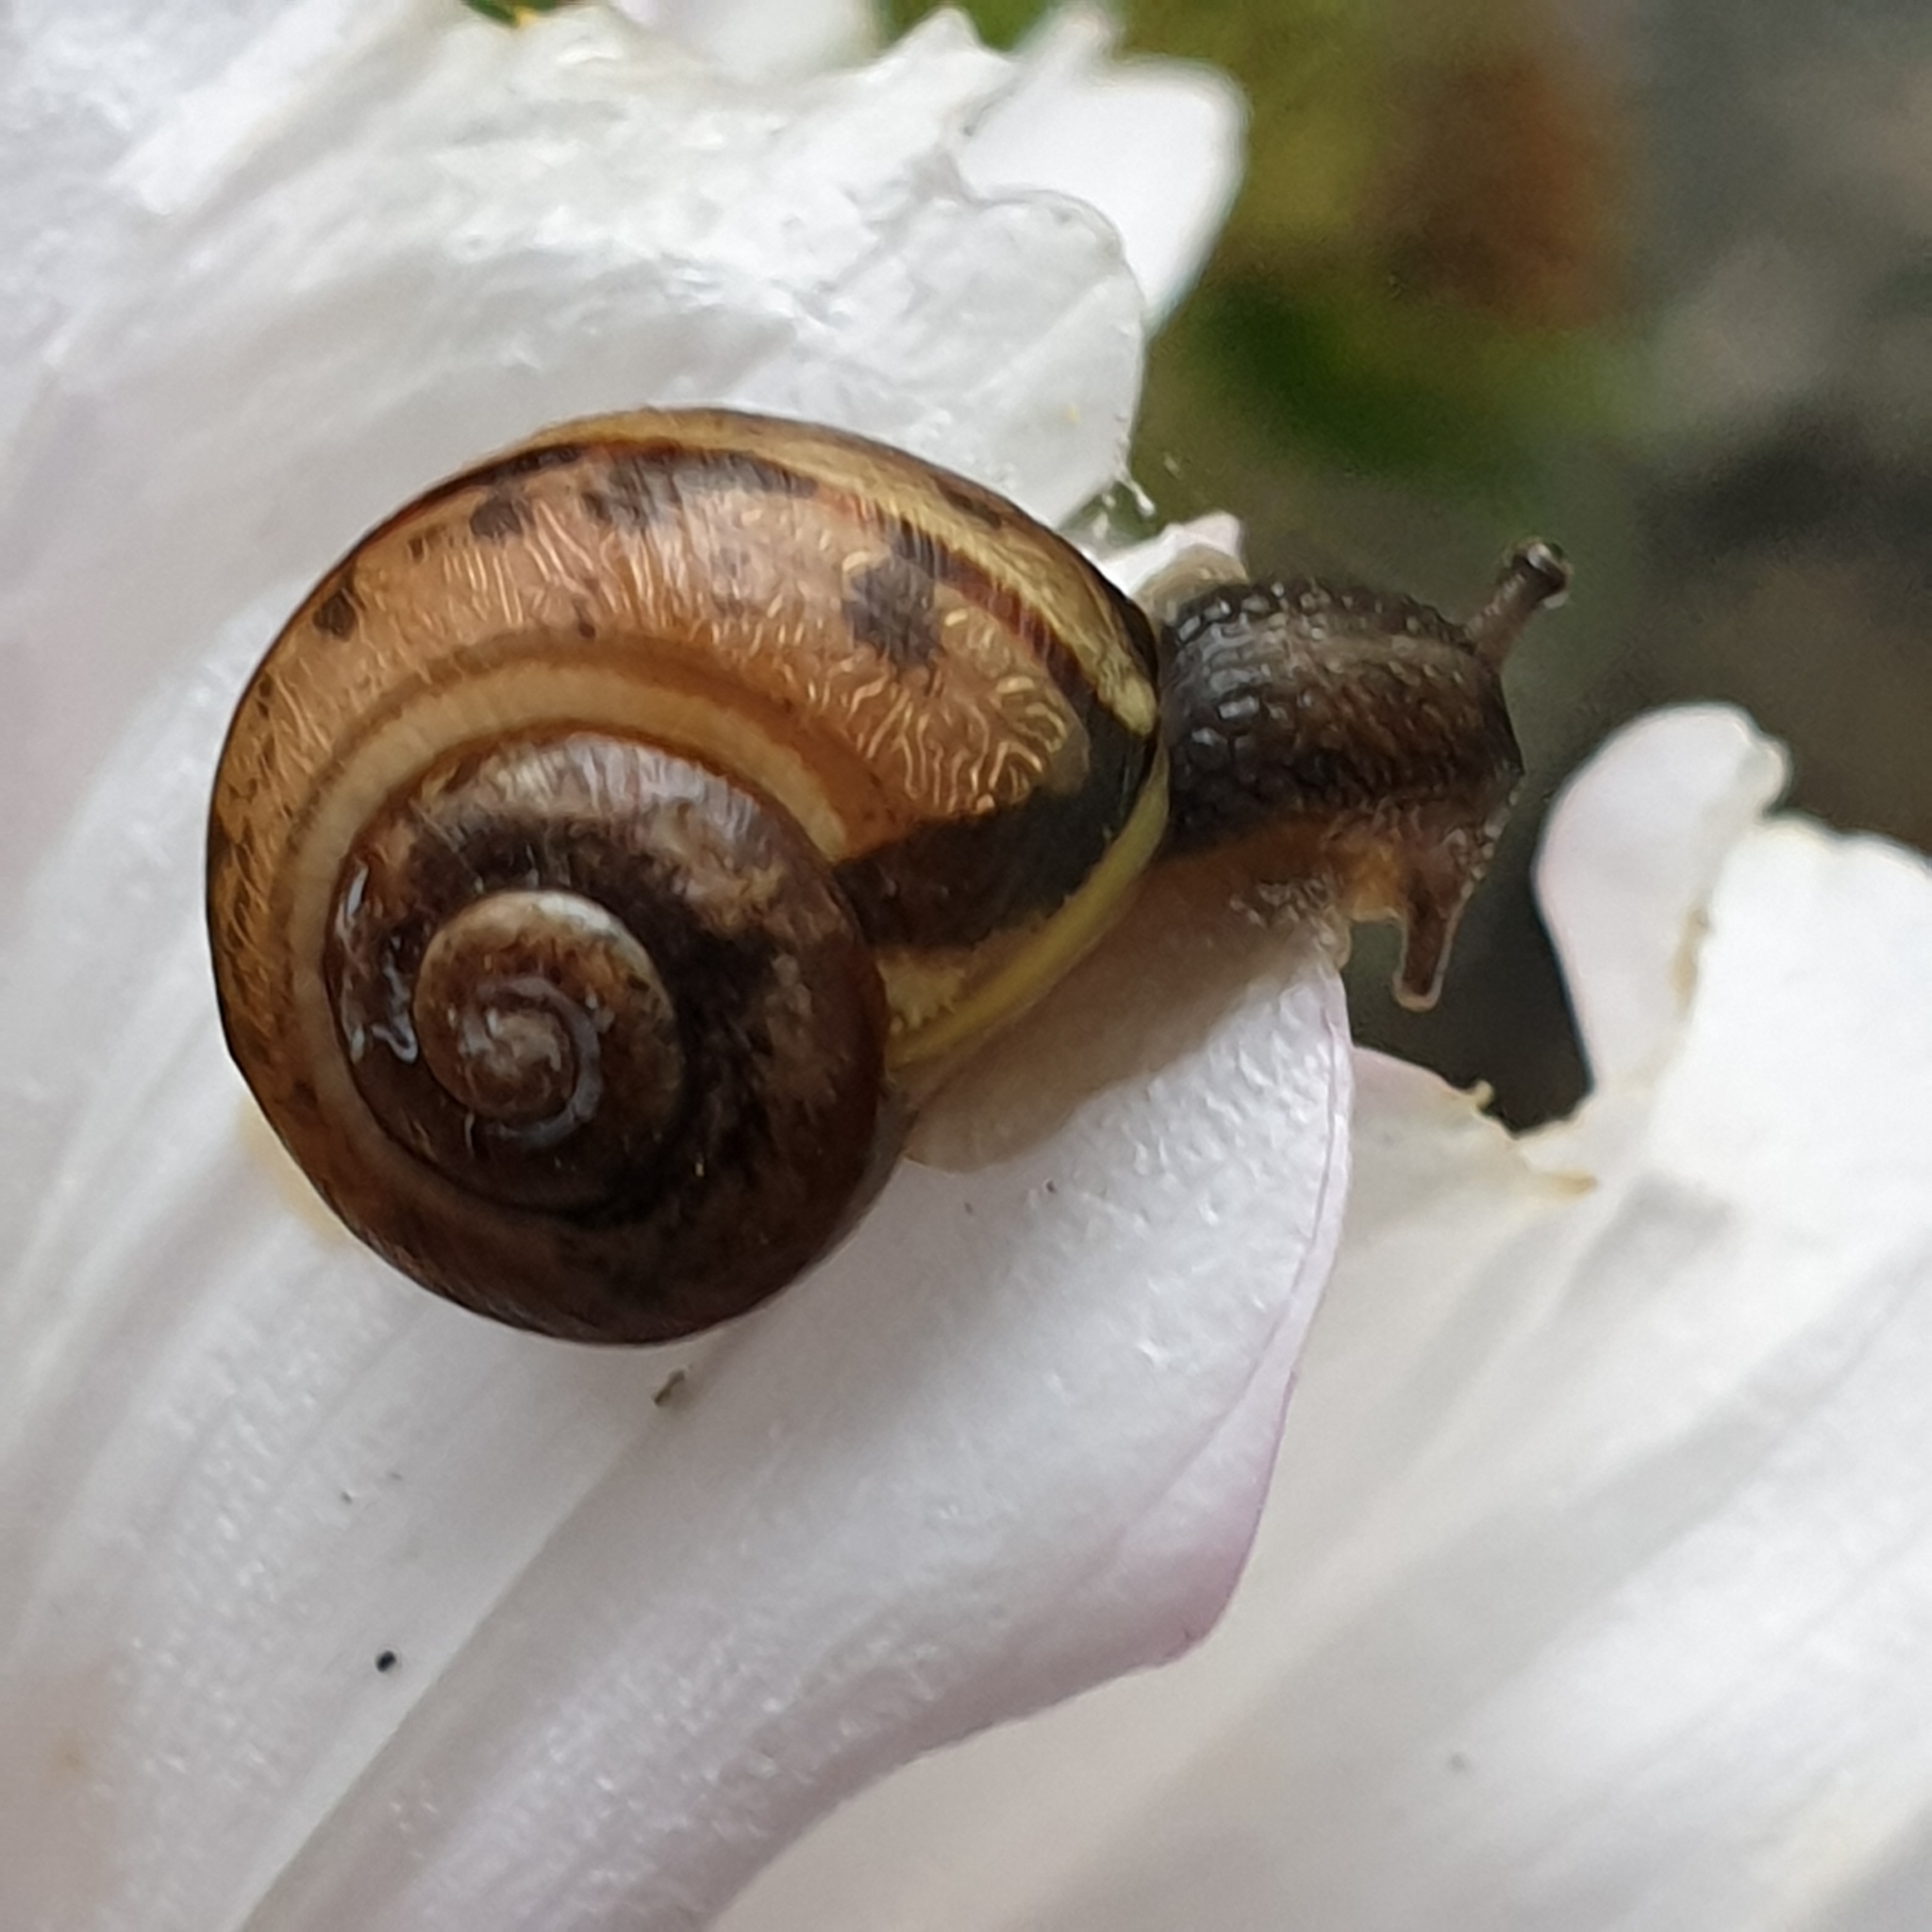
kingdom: Animalia
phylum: Mollusca
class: Gastropoda
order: Stylommatophora
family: Helicidae
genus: Arianta
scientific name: Arianta arbustorum
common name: Copse snail
